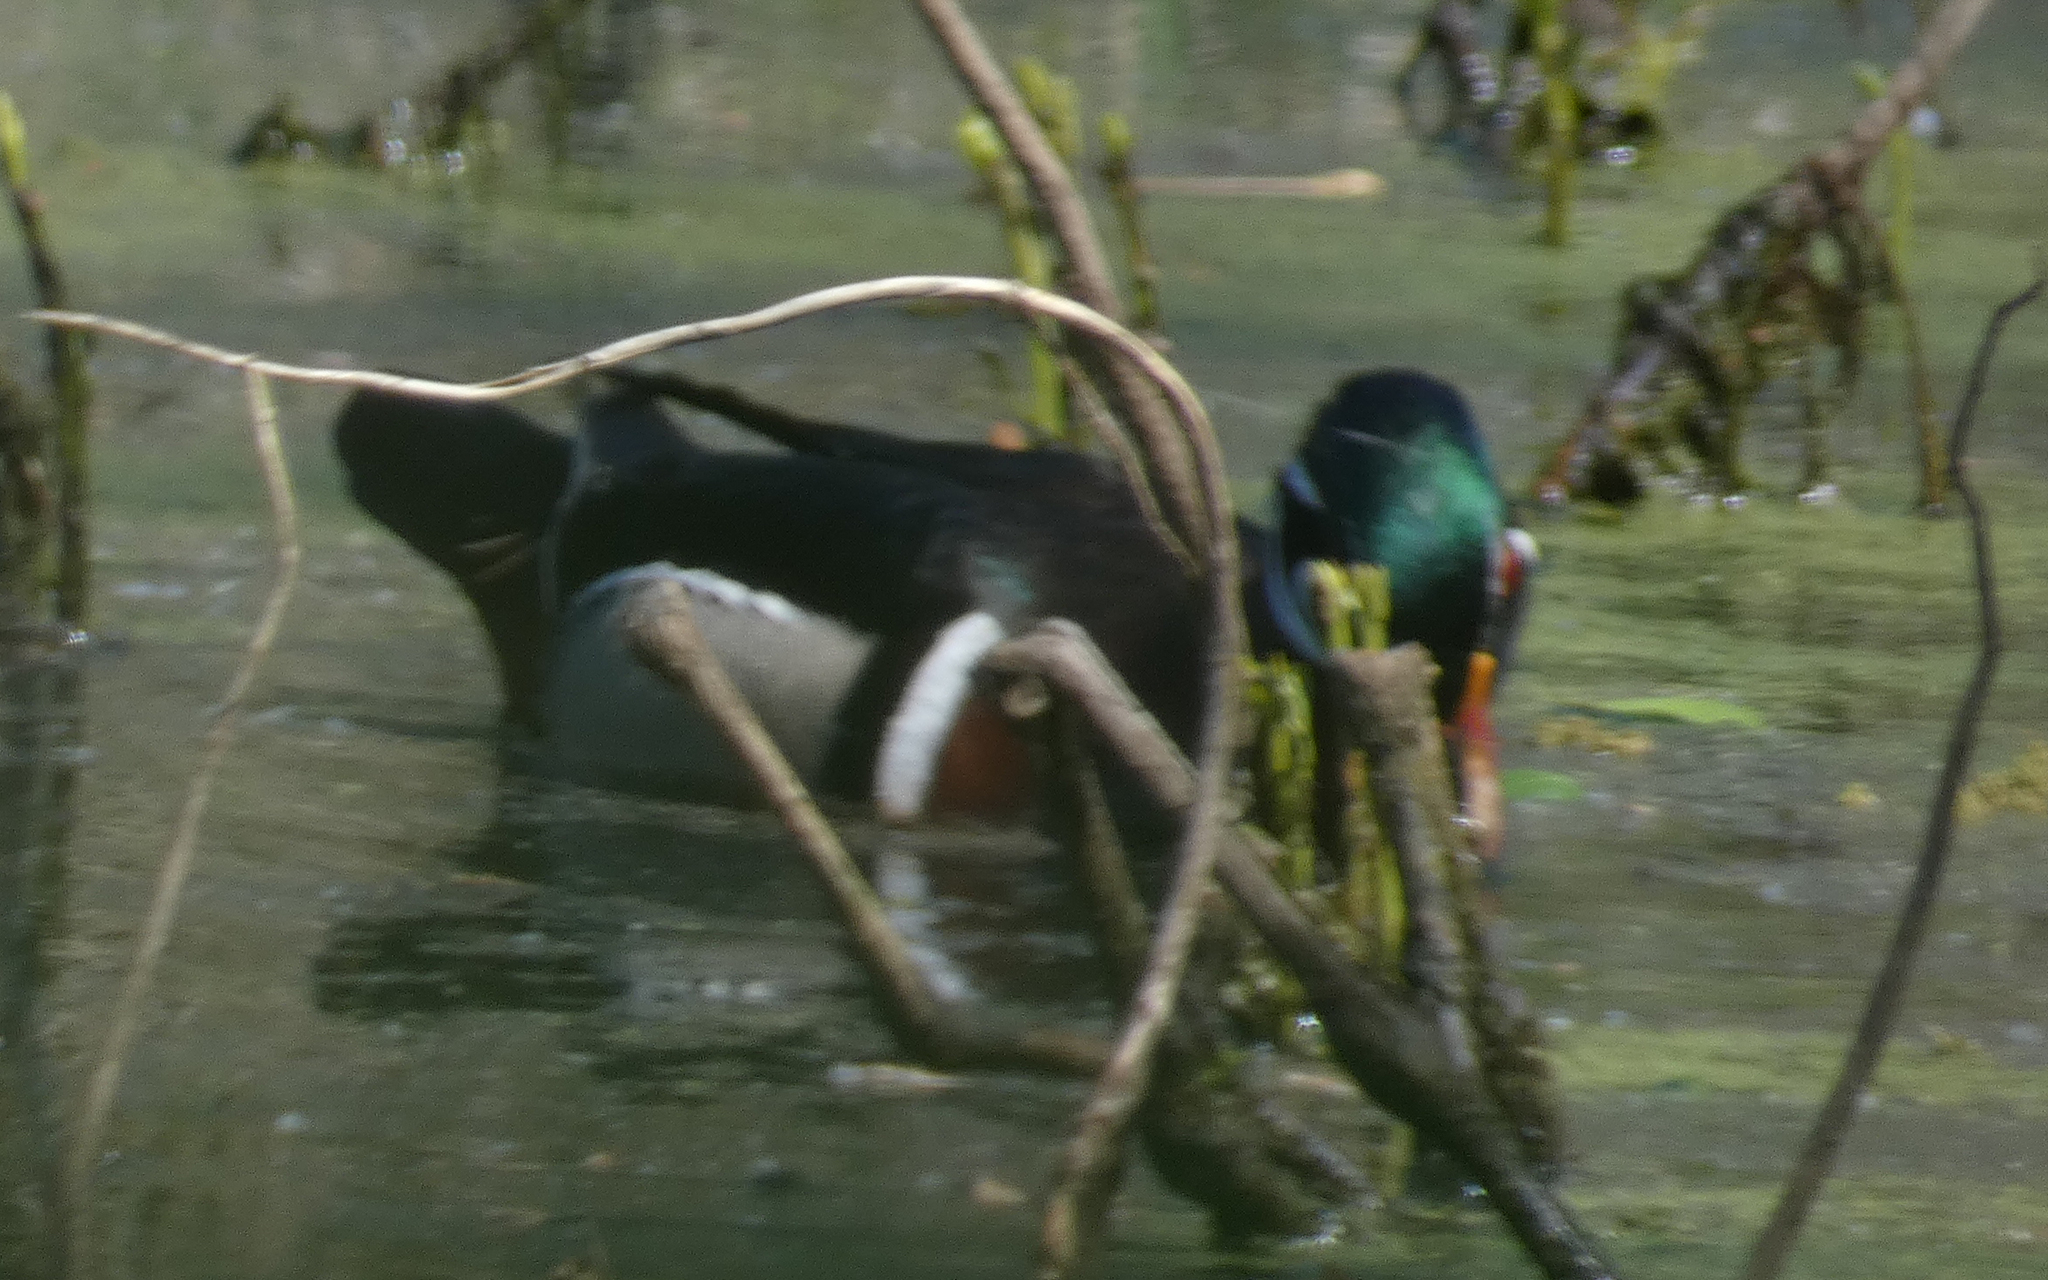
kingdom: Animalia
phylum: Chordata
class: Aves
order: Anseriformes
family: Anatidae
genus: Aix
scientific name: Aix sponsa
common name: Wood duck
